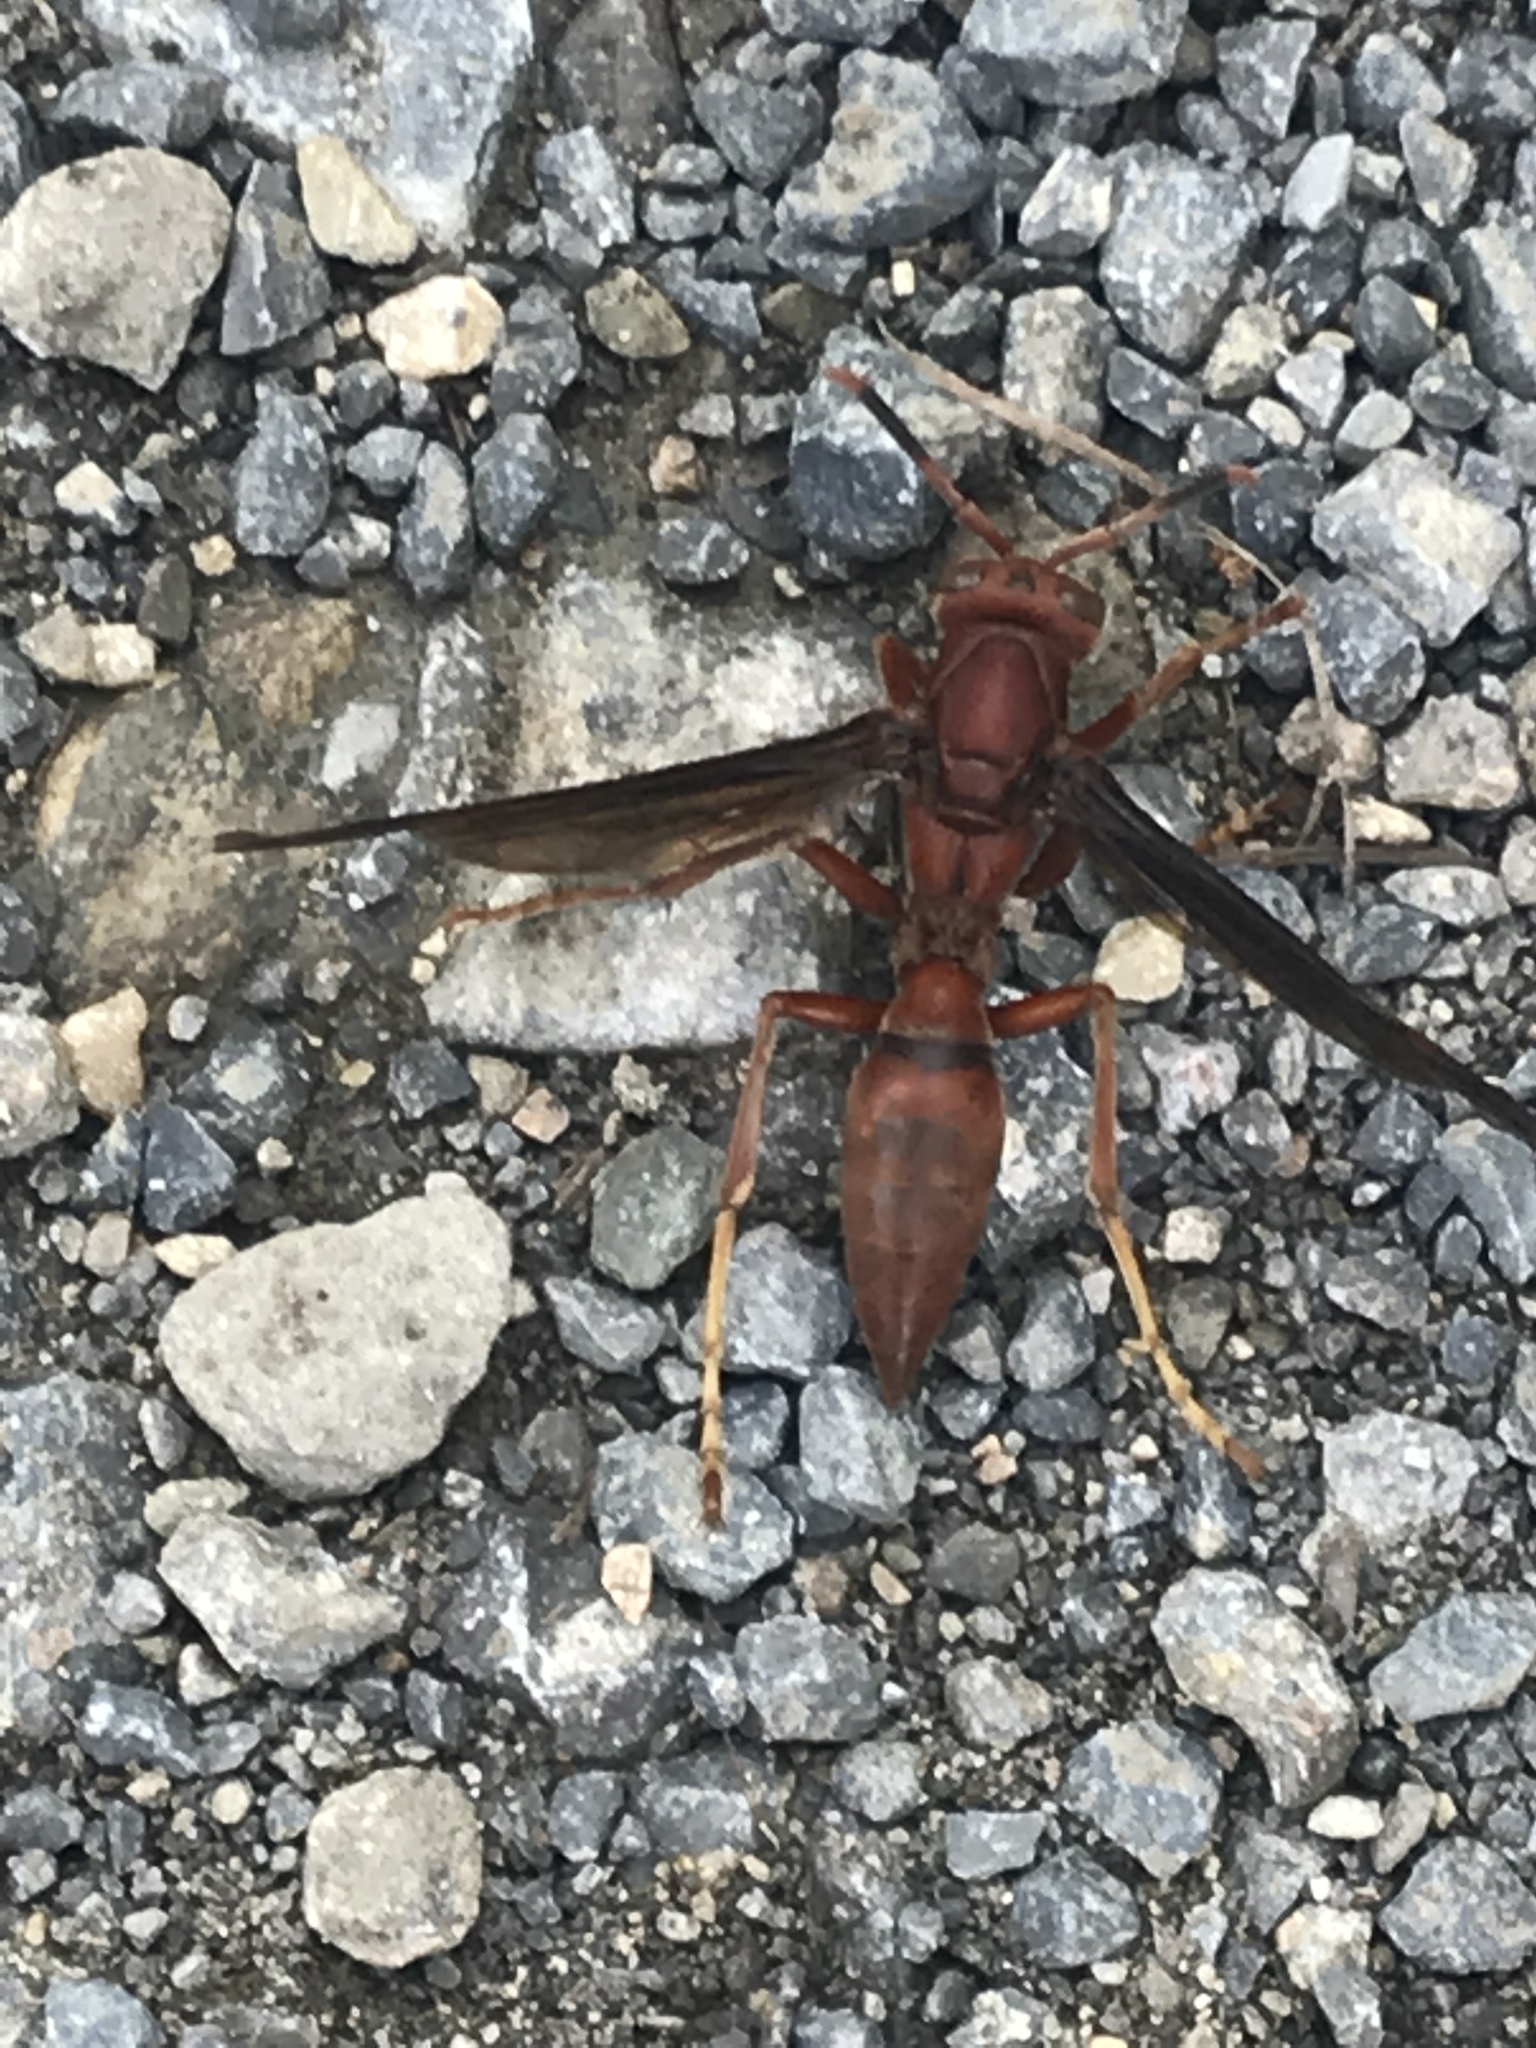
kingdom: Animalia
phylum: Arthropoda
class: Insecta
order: Hymenoptera
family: Eumenidae
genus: Polistes
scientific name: Polistes canadensis
